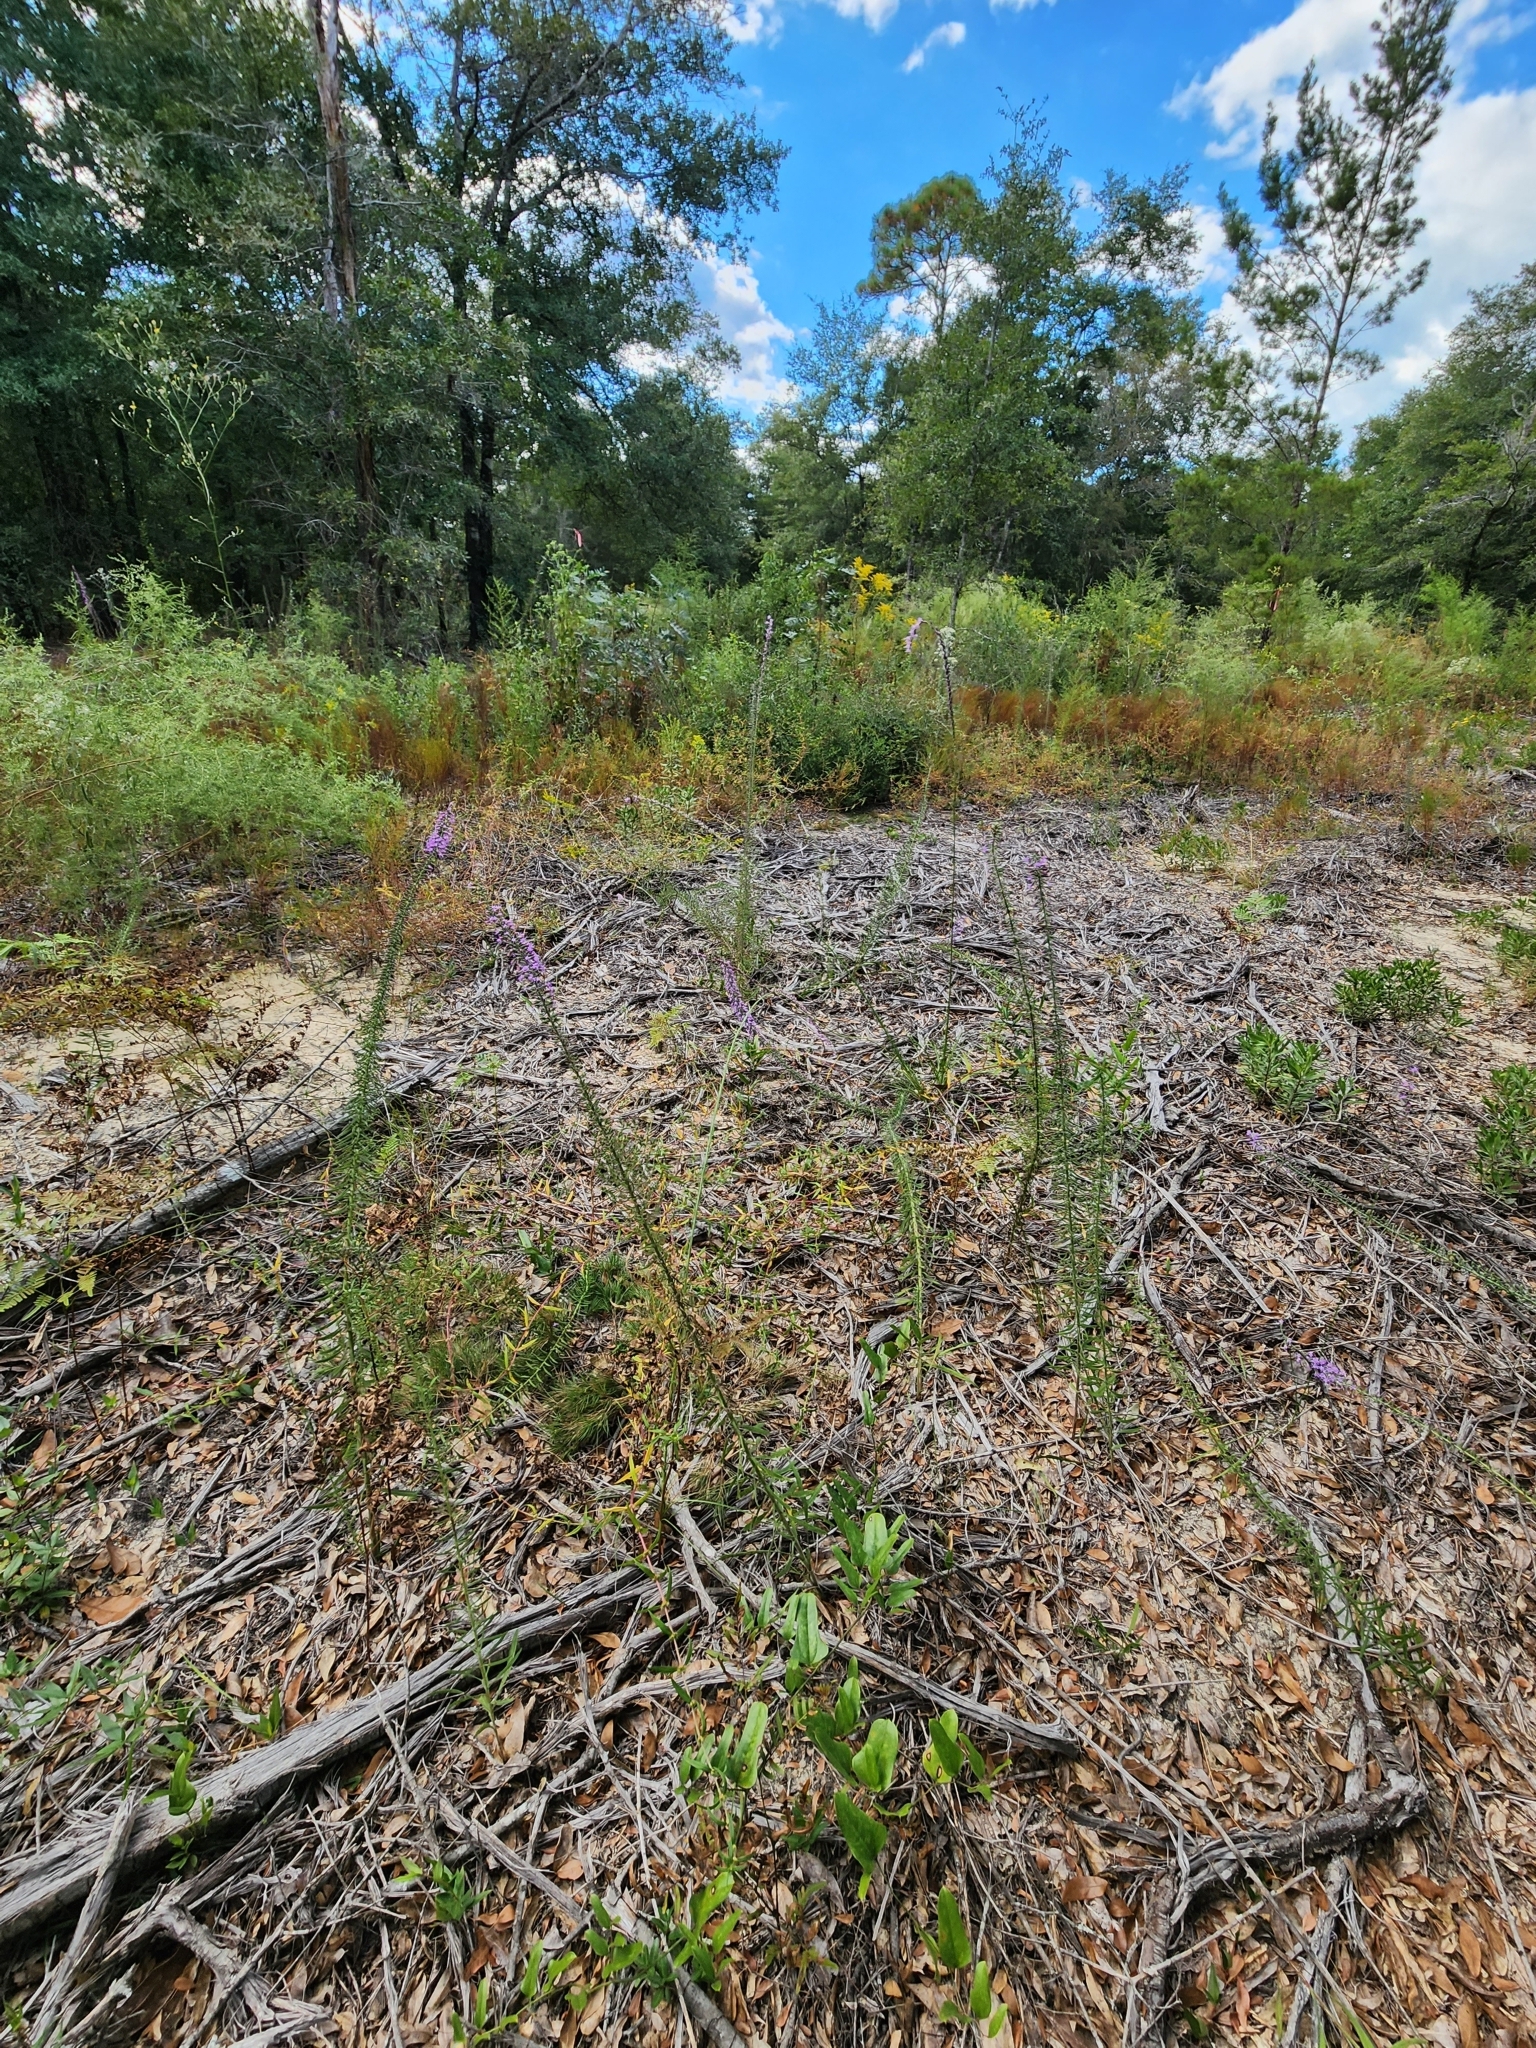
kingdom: Plantae
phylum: Tracheophyta
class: Magnoliopsida
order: Asterales
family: Asteraceae
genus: Liatris
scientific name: Liatris gracilis
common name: Slender gayfeather
